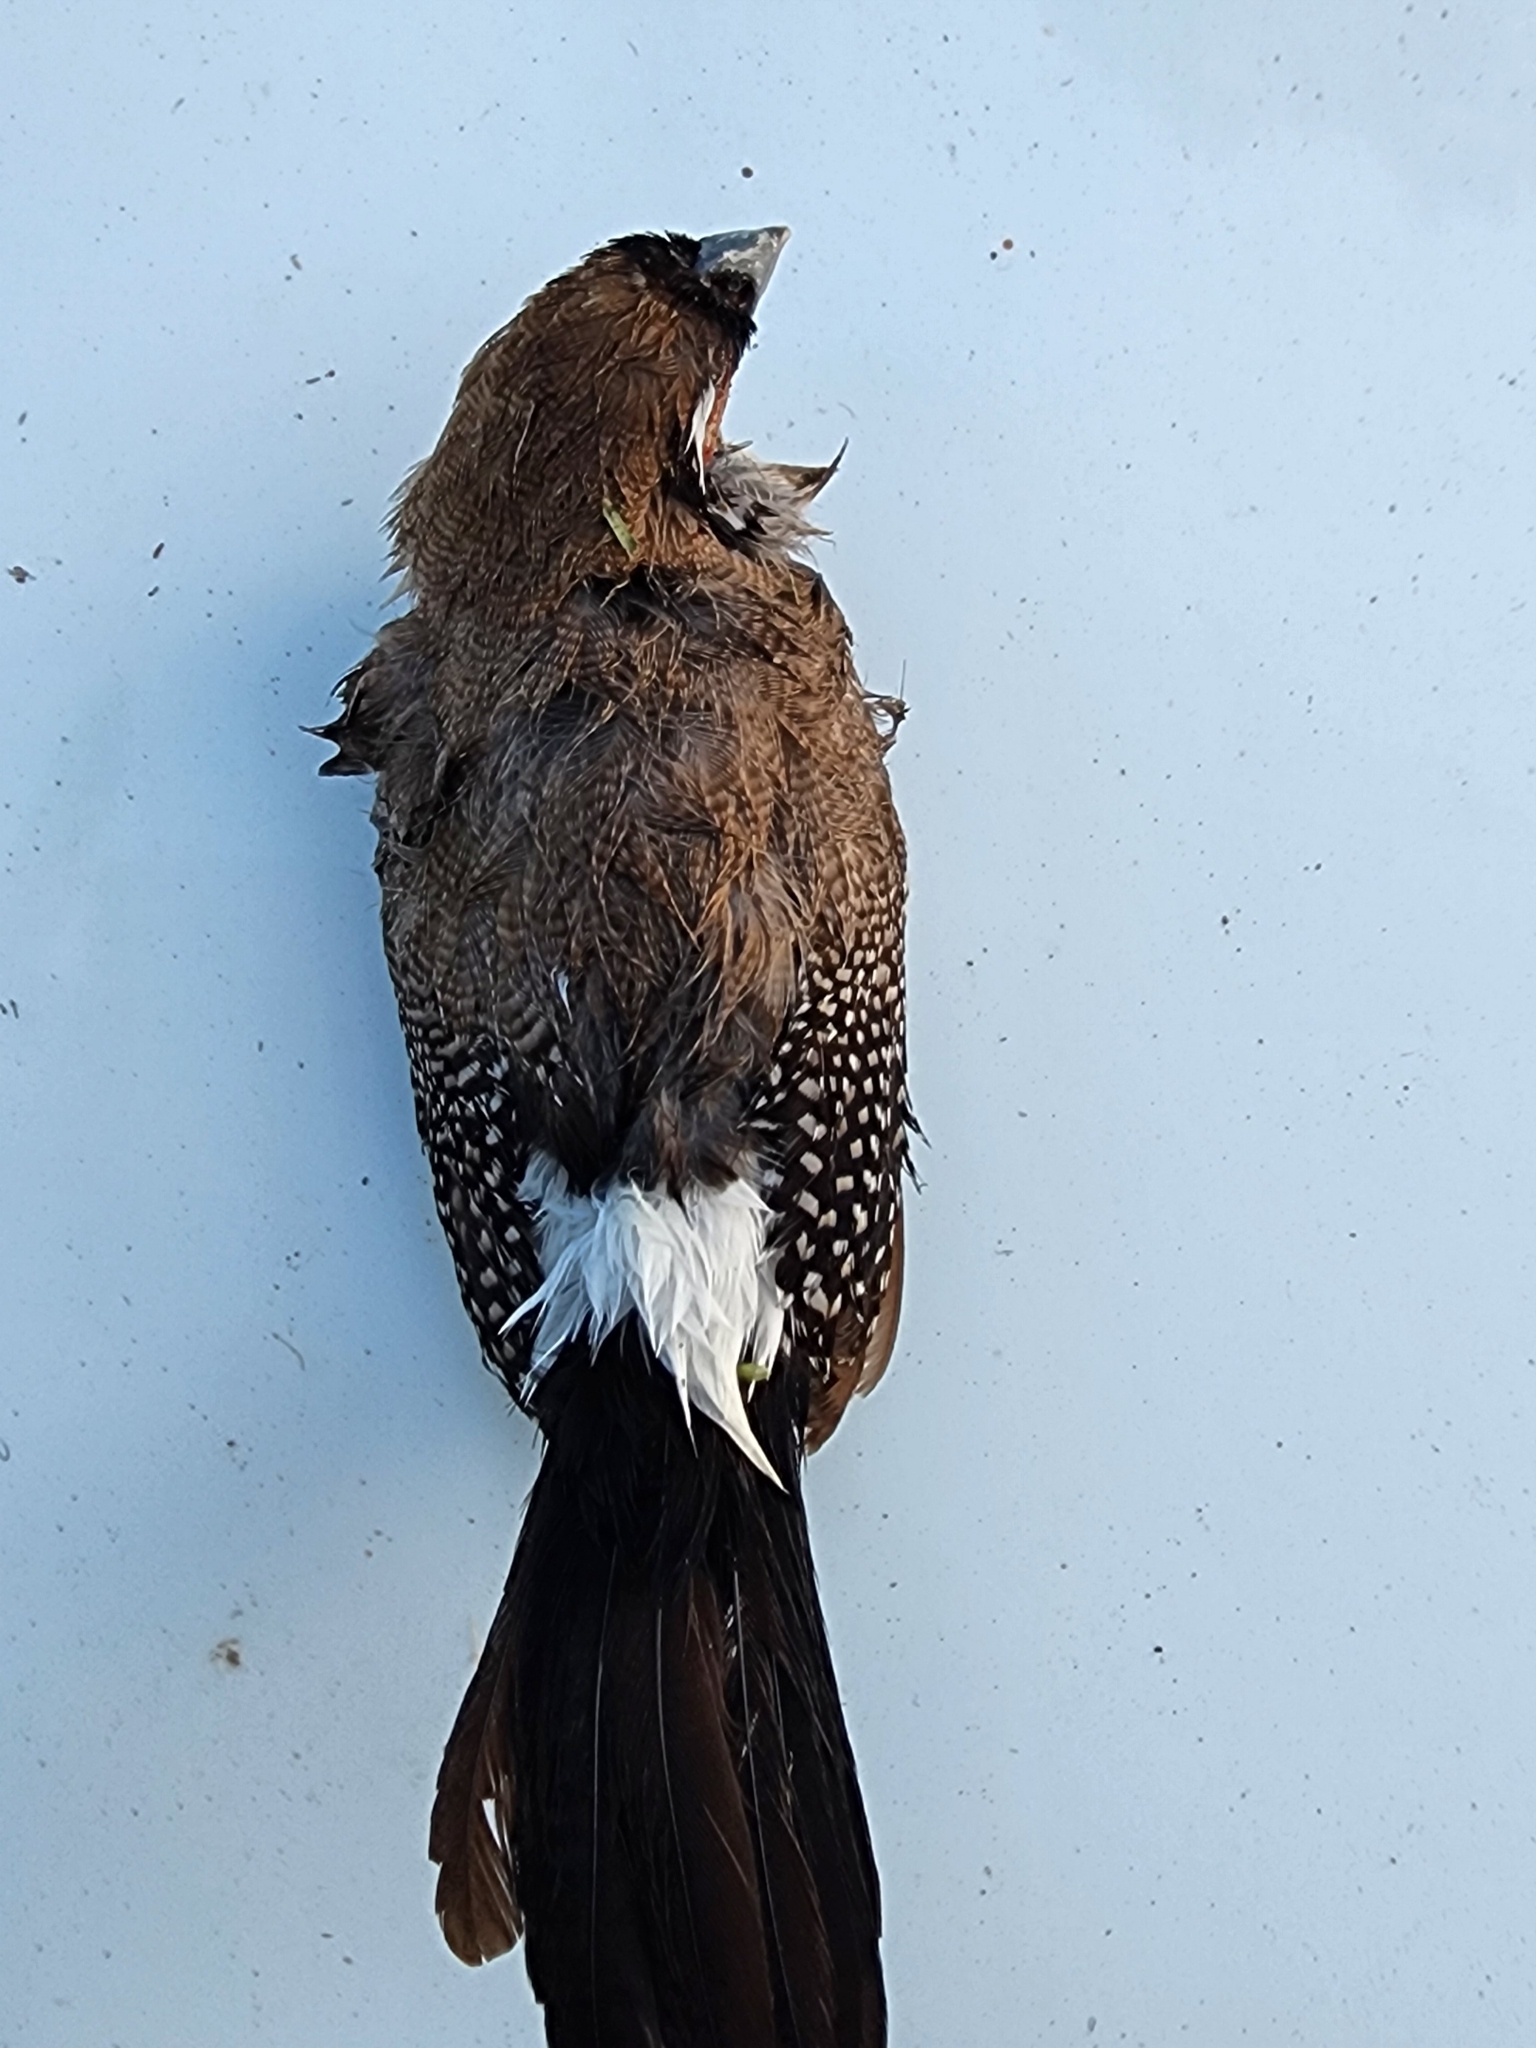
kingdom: Animalia
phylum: Chordata
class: Aves
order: Passeriformes
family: Estrildidae
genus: Taeniopygia
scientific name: Taeniopygia bichenovii
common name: Double-barred finch
